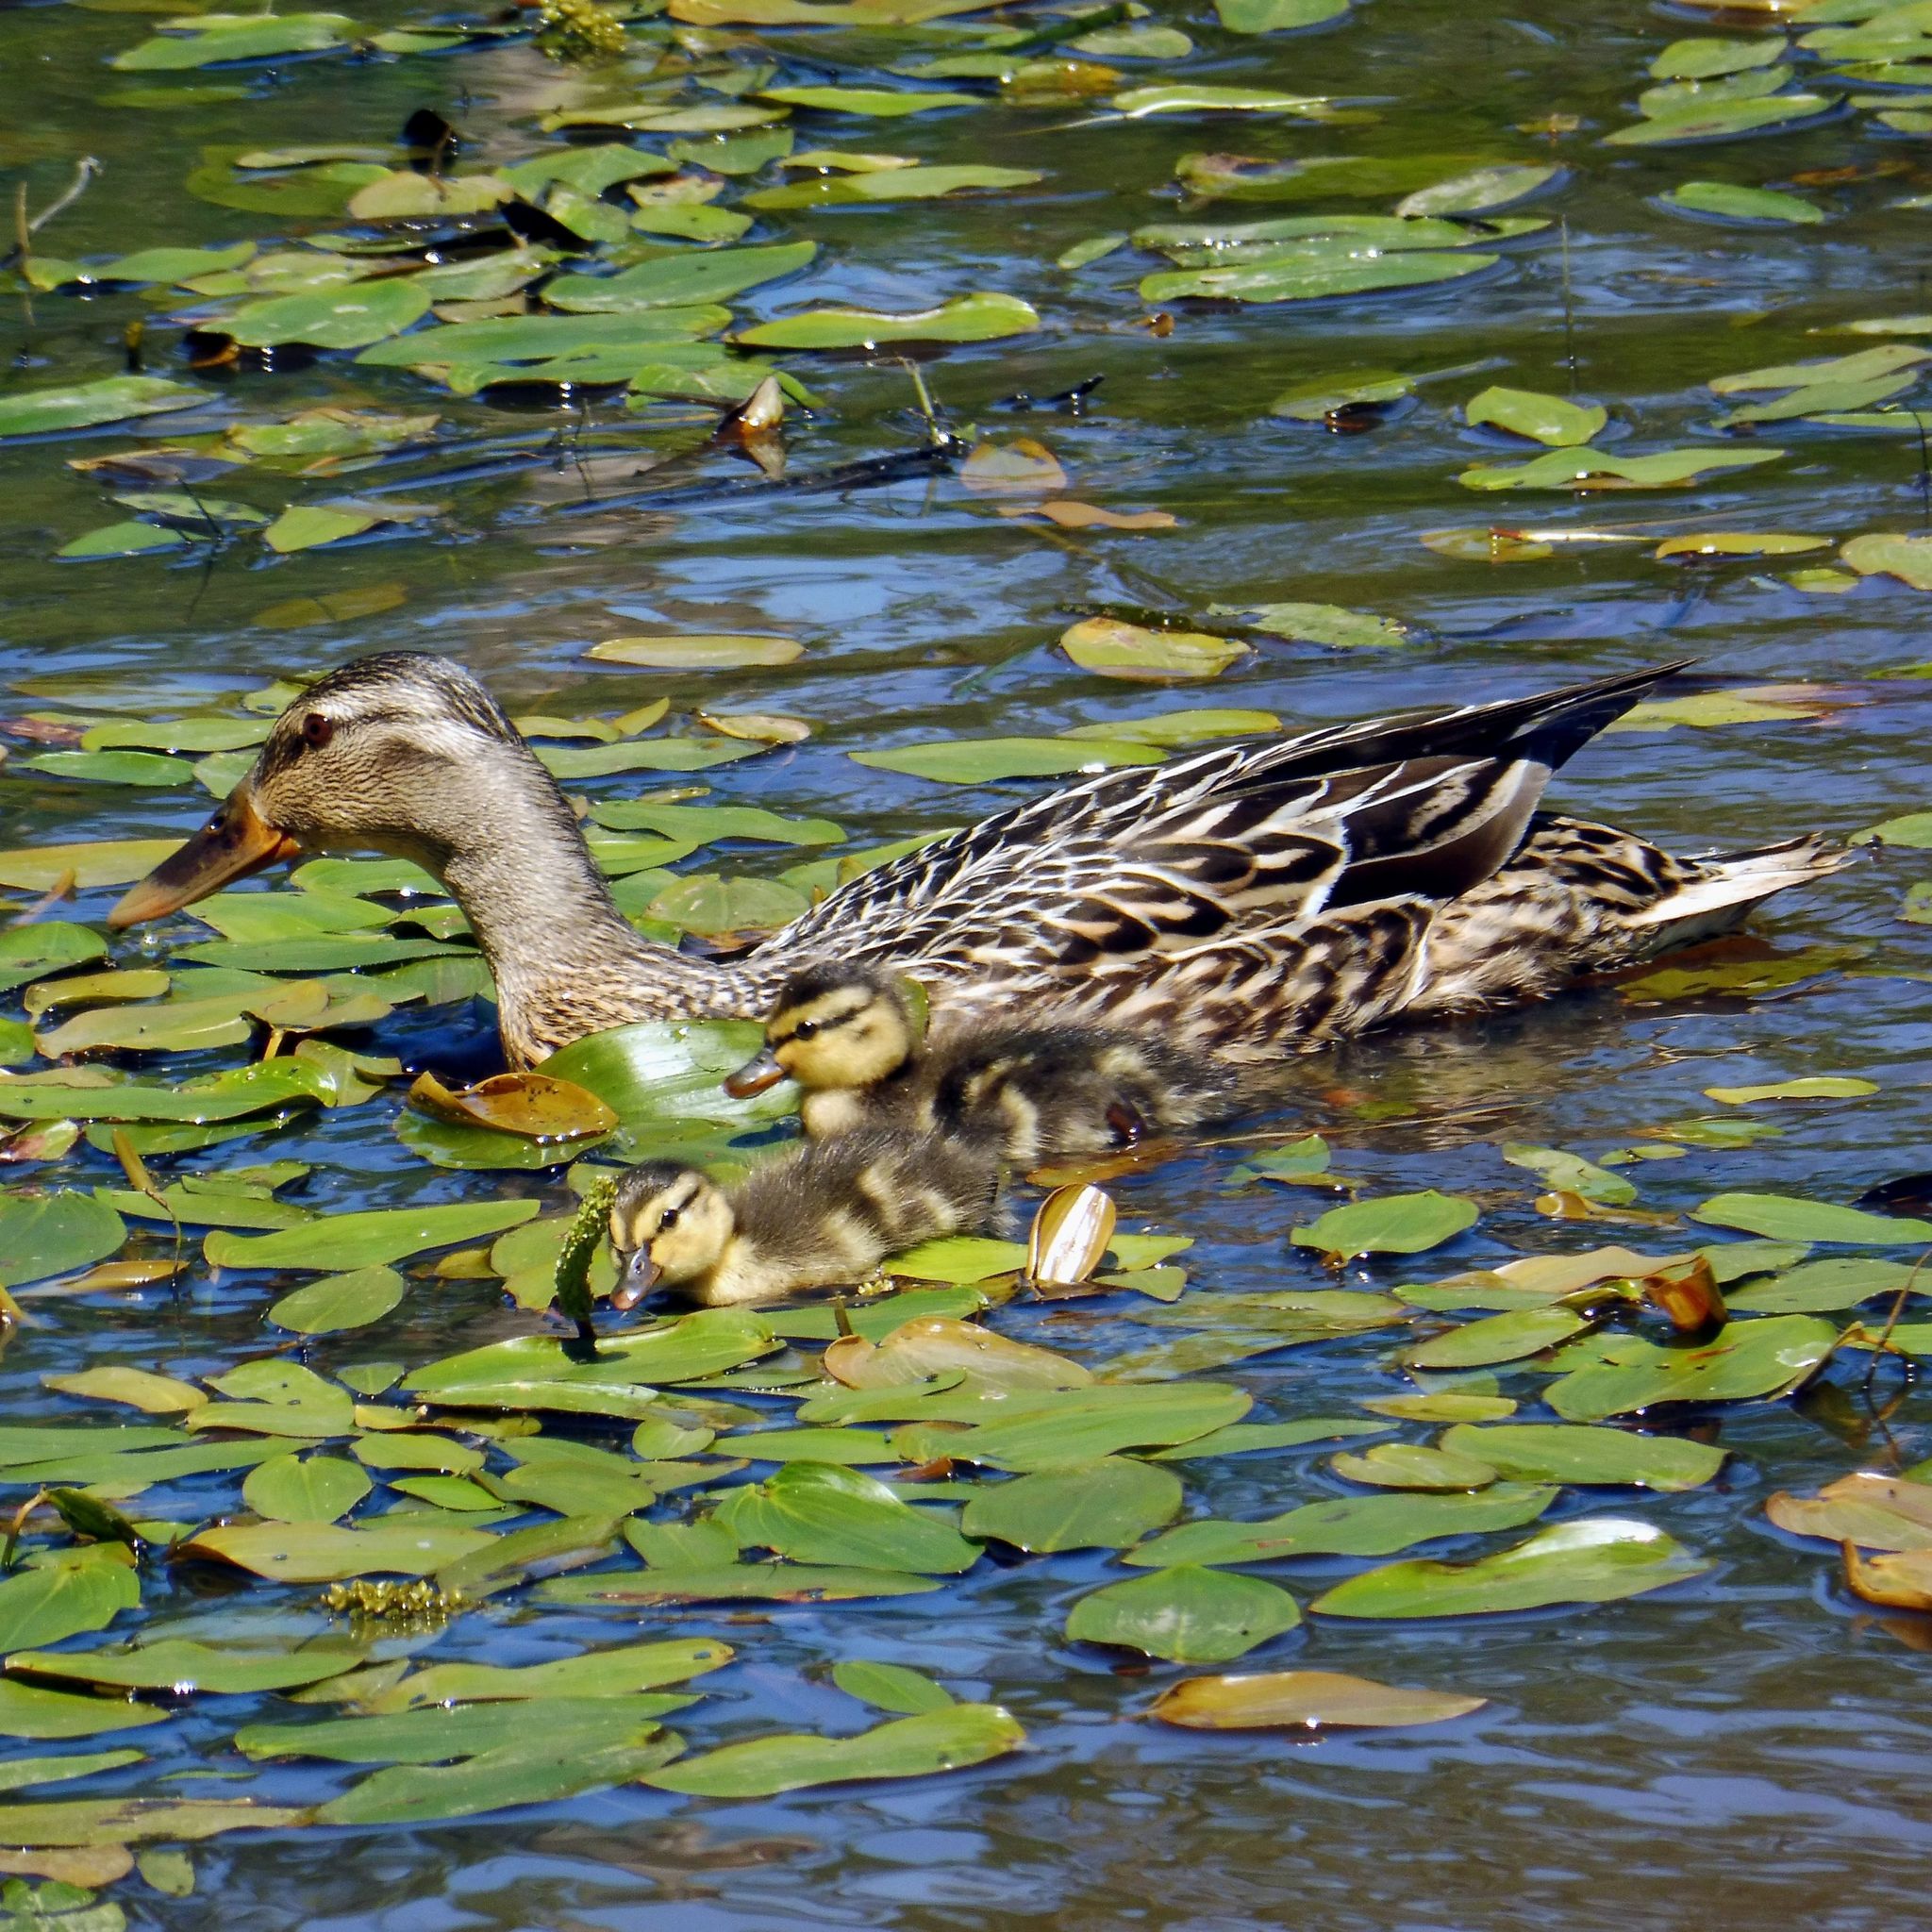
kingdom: Animalia
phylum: Chordata
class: Aves
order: Anseriformes
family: Anatidae
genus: Anas
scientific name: Anas platyrhynchos
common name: Mallard
